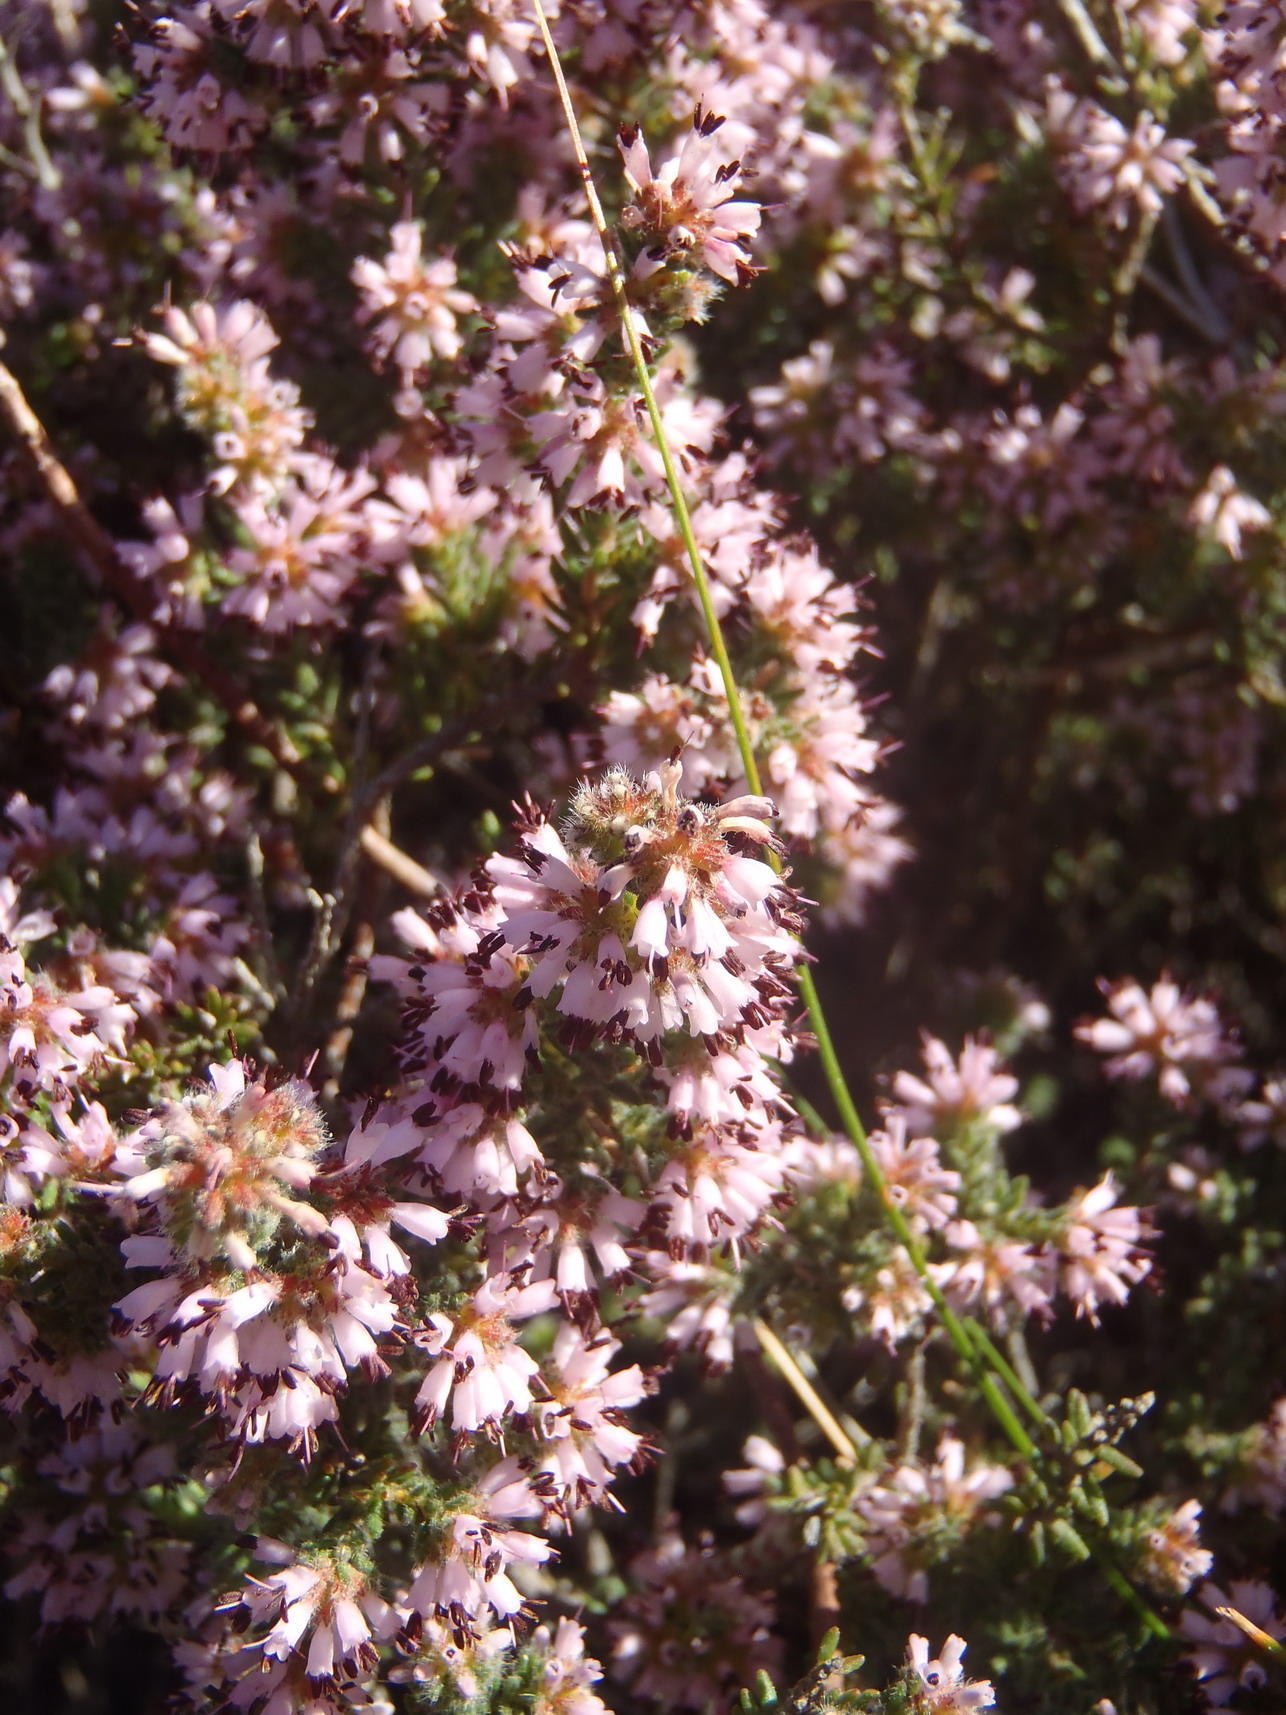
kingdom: Plantae
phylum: Tracheophyta
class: Magnoliopsida
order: Ericales
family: Ericaceae
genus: Erica
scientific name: Erica glabella
